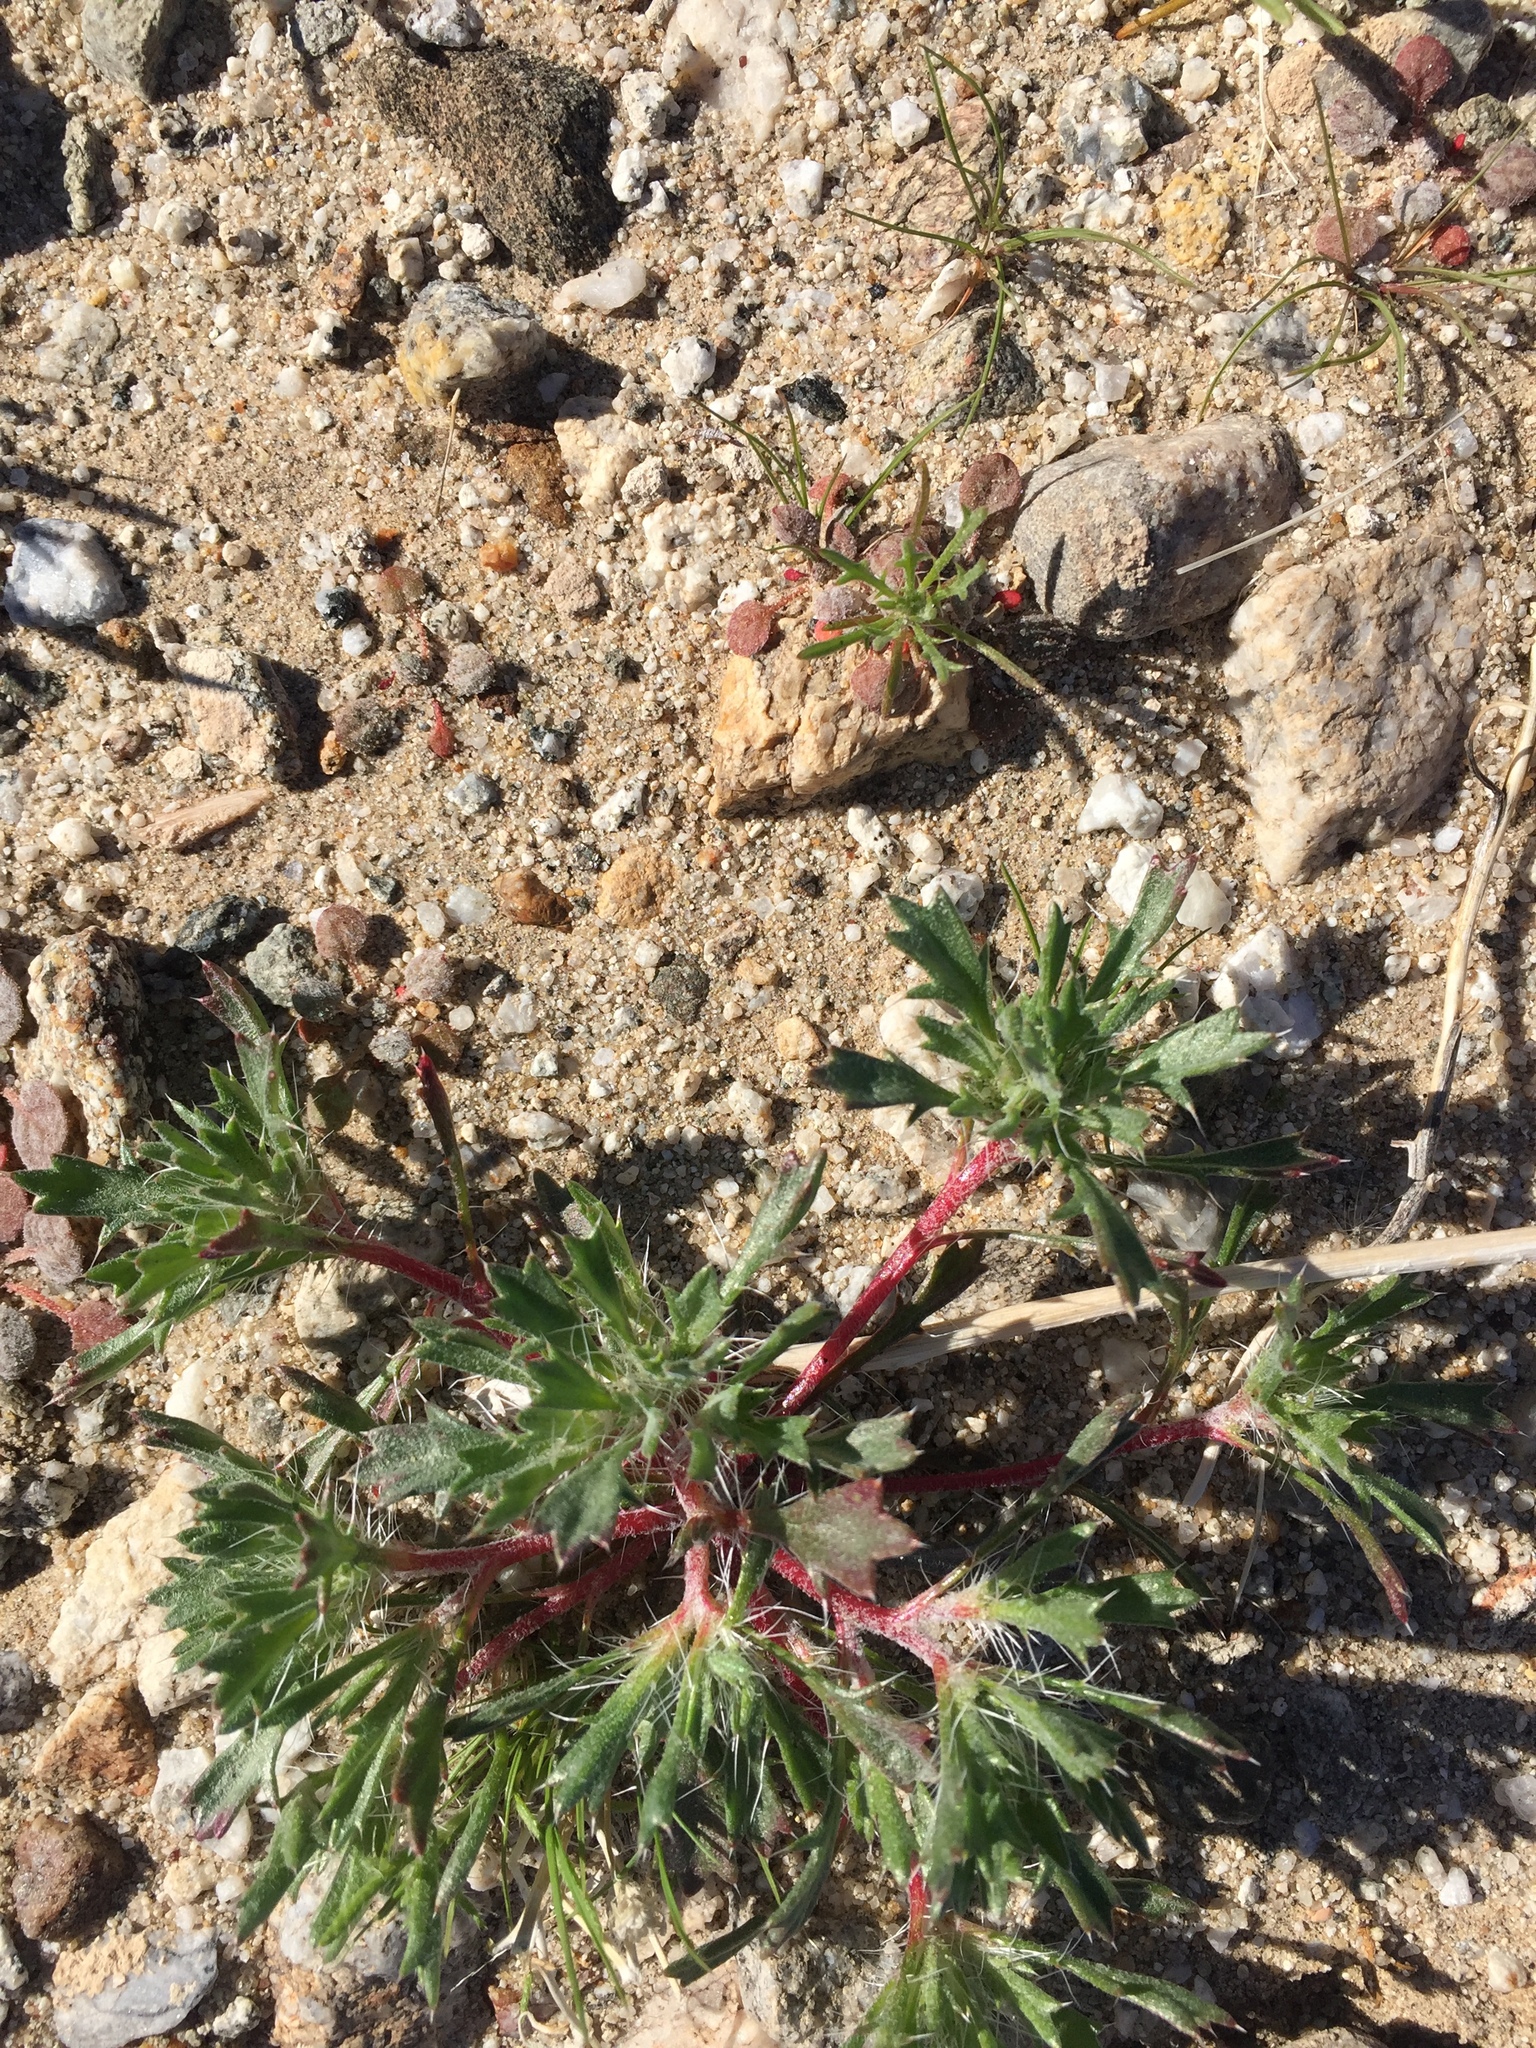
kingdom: Plantae
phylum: Tracheophyta
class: Magnoliopsida
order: Ericales
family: Polemoniaceae
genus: Langloisia
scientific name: Langloisia setosissima
